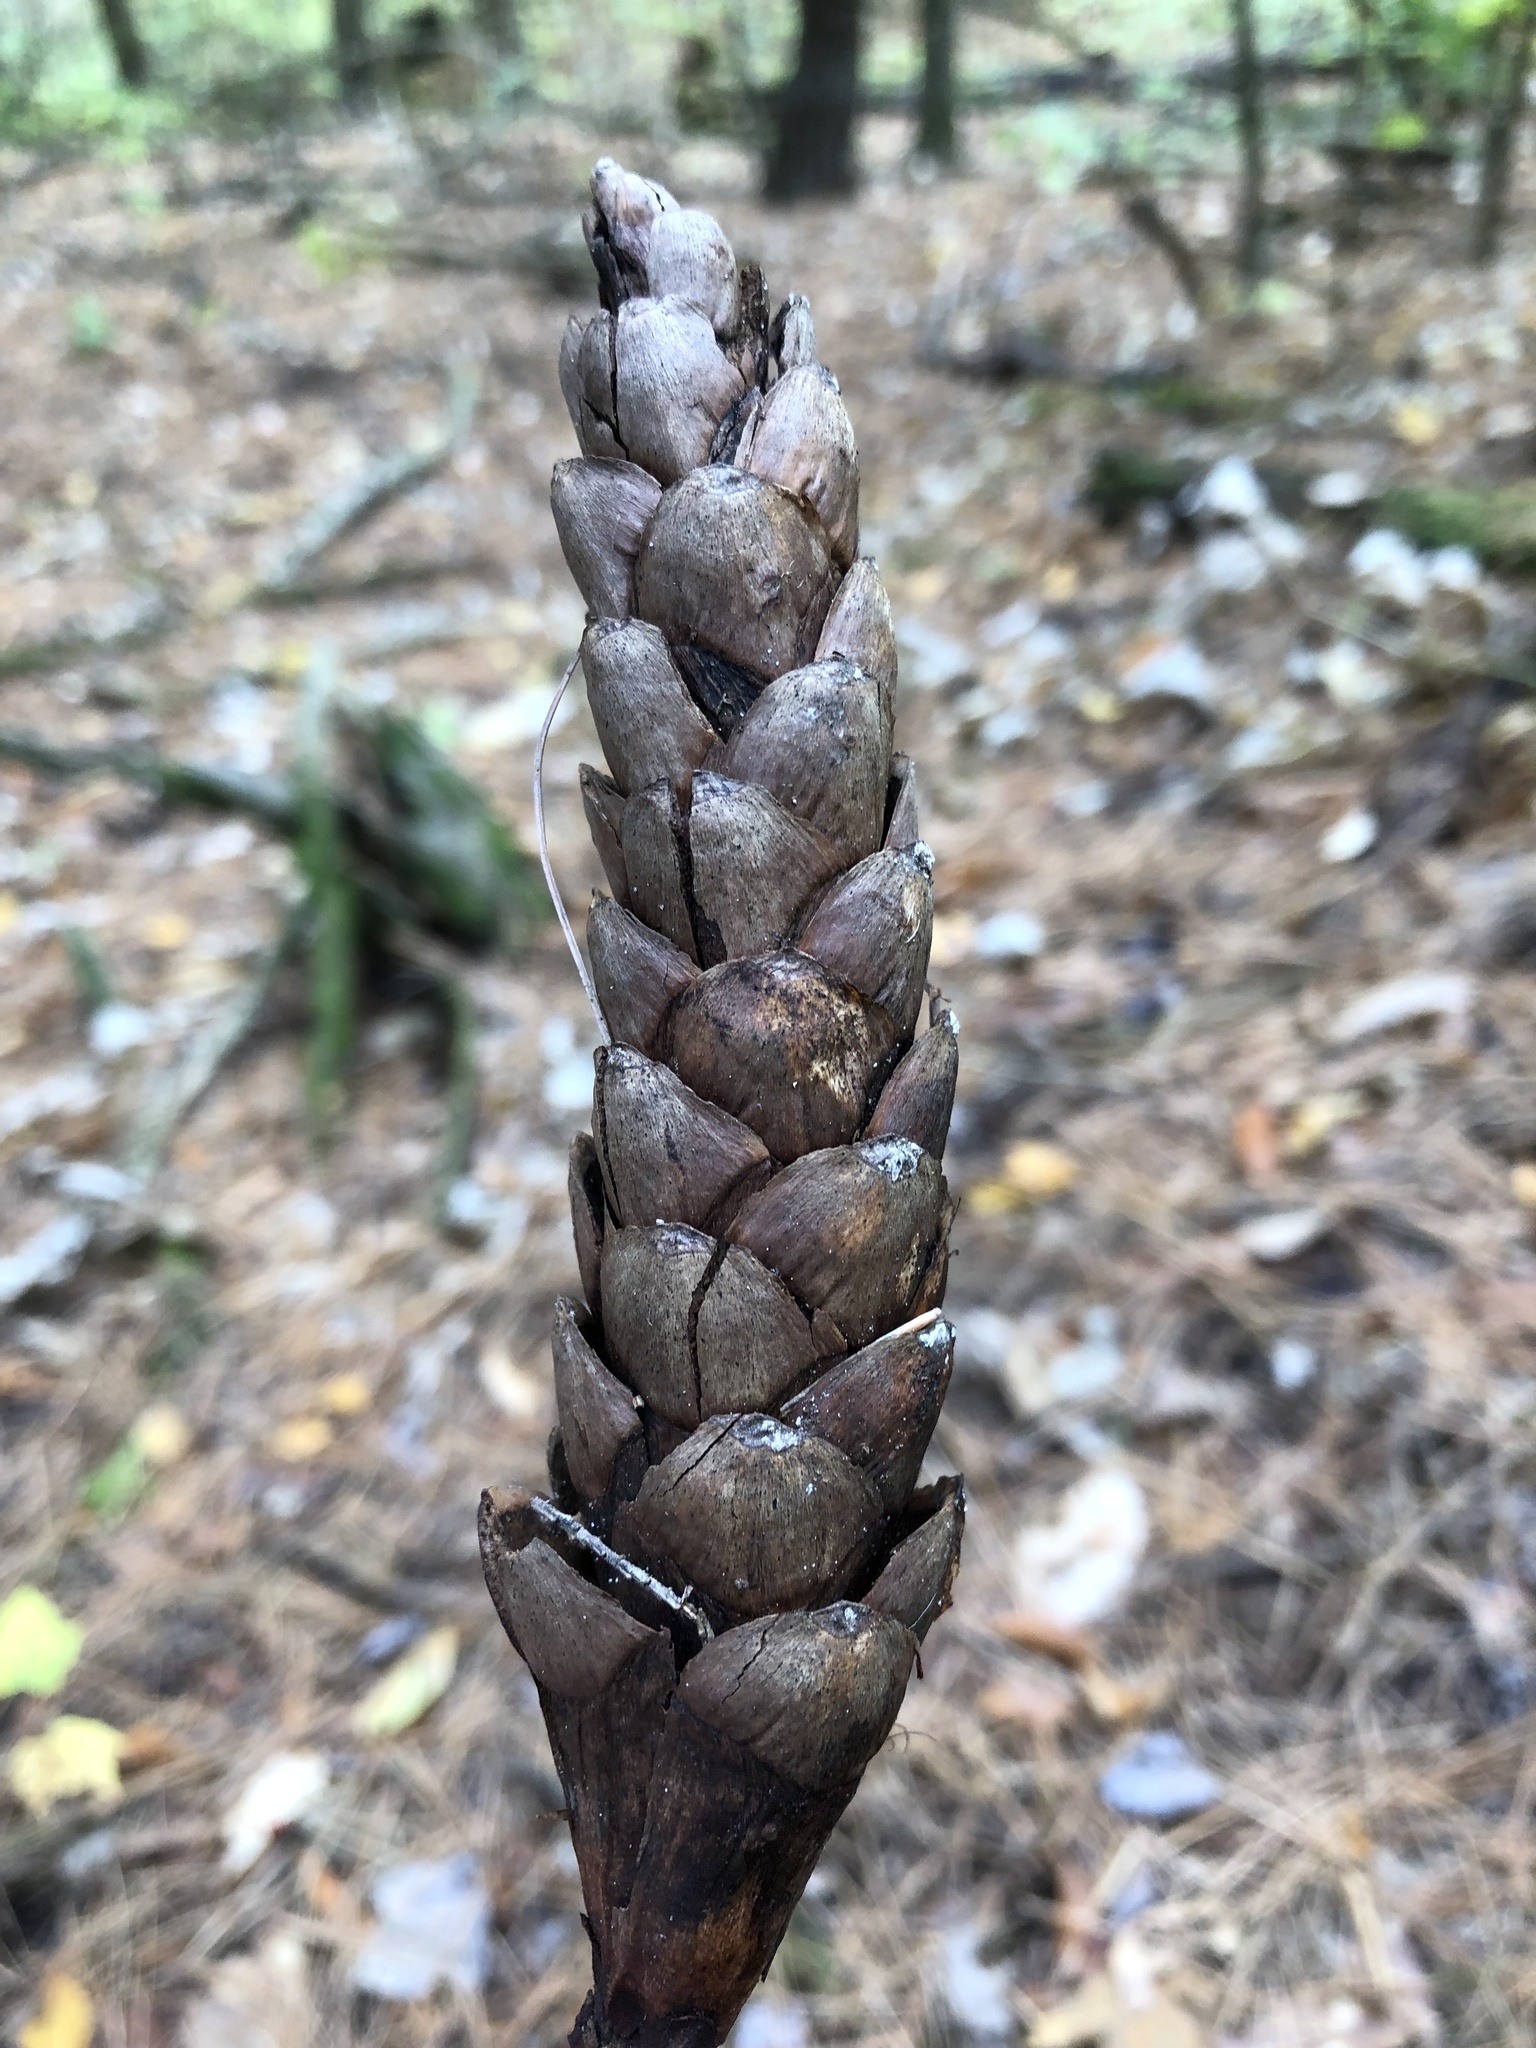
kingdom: Plantae
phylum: Tracheophyta
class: Pinopsida
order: Pinales
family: Pinaceae
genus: Pinus
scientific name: Pinus strobus
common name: Weymouth pine
